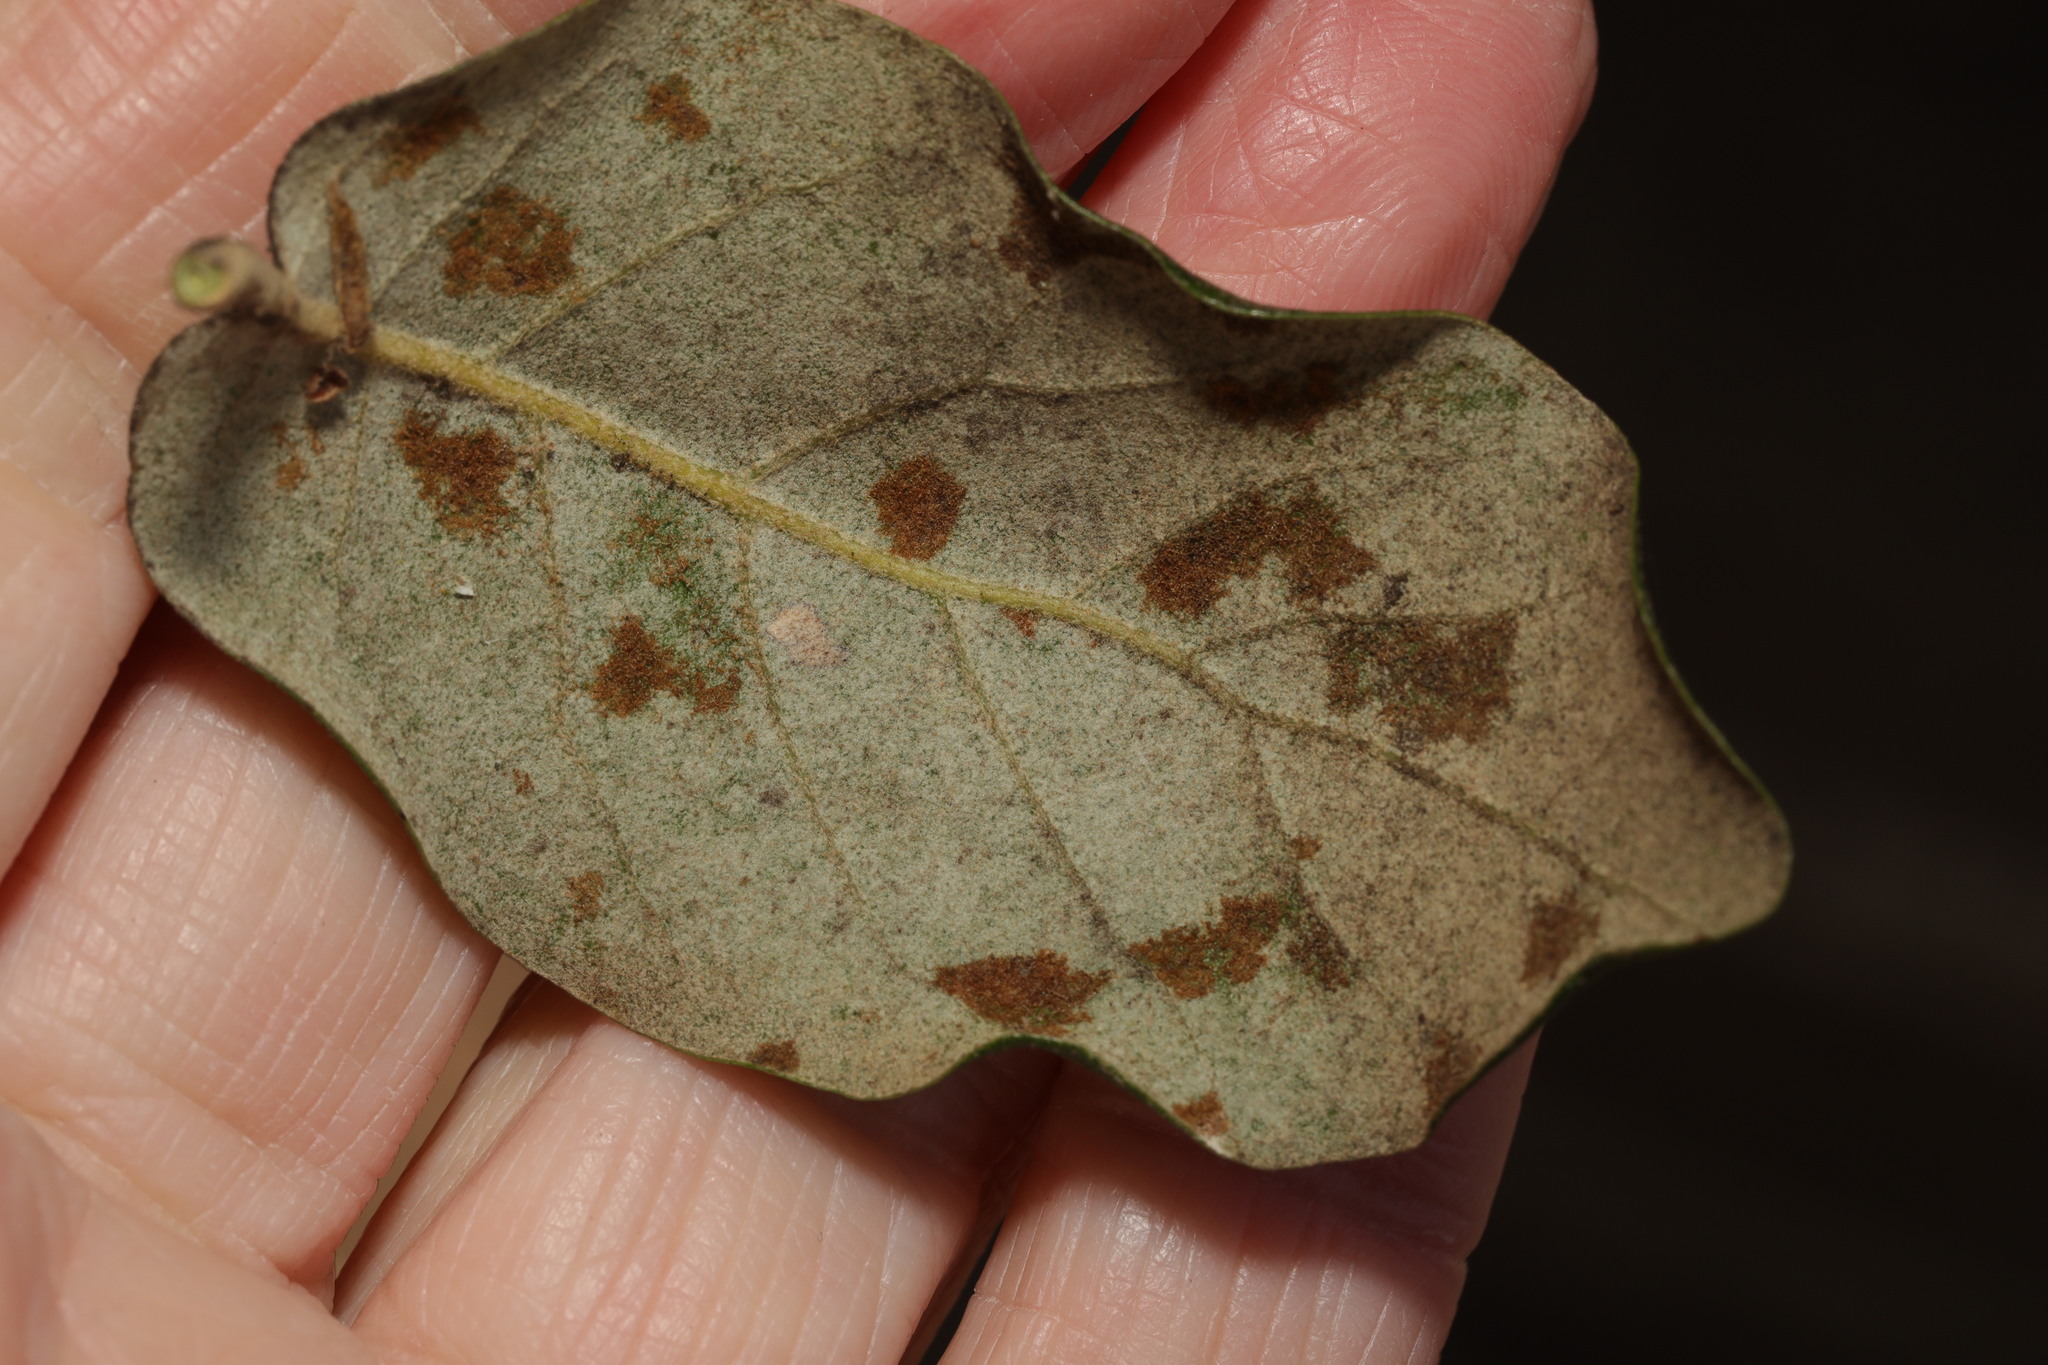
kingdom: Animalia
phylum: Arthropoda
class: Arachnida
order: Trombidiformes
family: Eriophyidae
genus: Aceria
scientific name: Aceria ilicis
